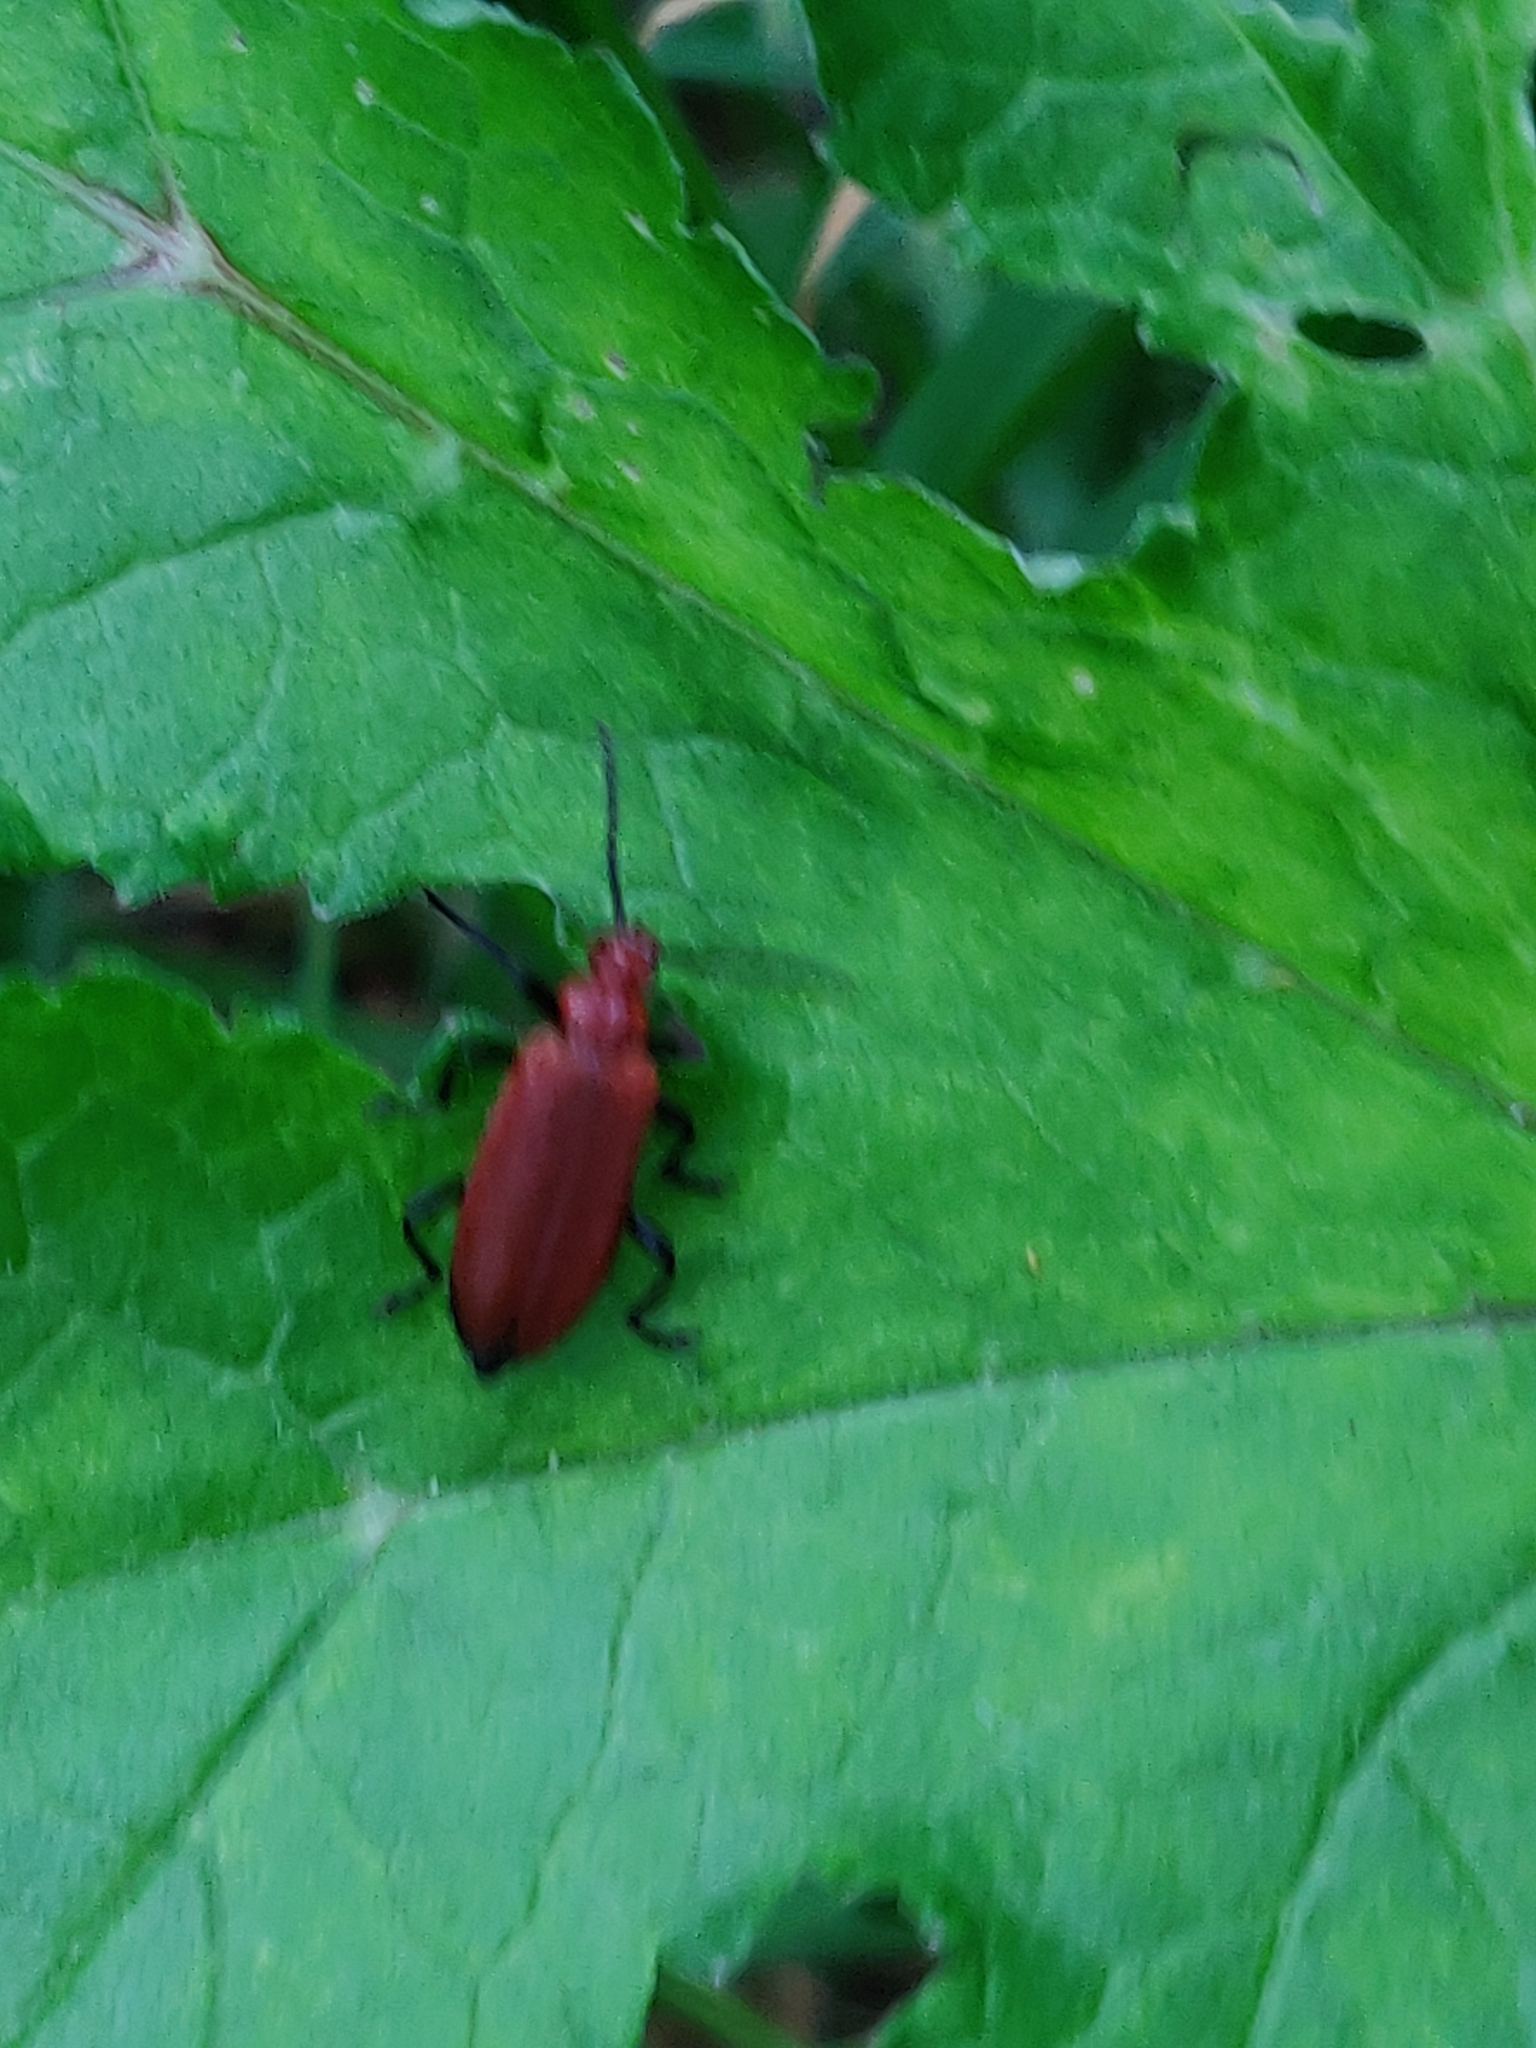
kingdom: Animalia
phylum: Arthropoda
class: Insecta
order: Coleoptera
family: Pyrochroidae
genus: Pyrochroa
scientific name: Pyrochroa serraticornis
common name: Red-headed cardinal beetle
